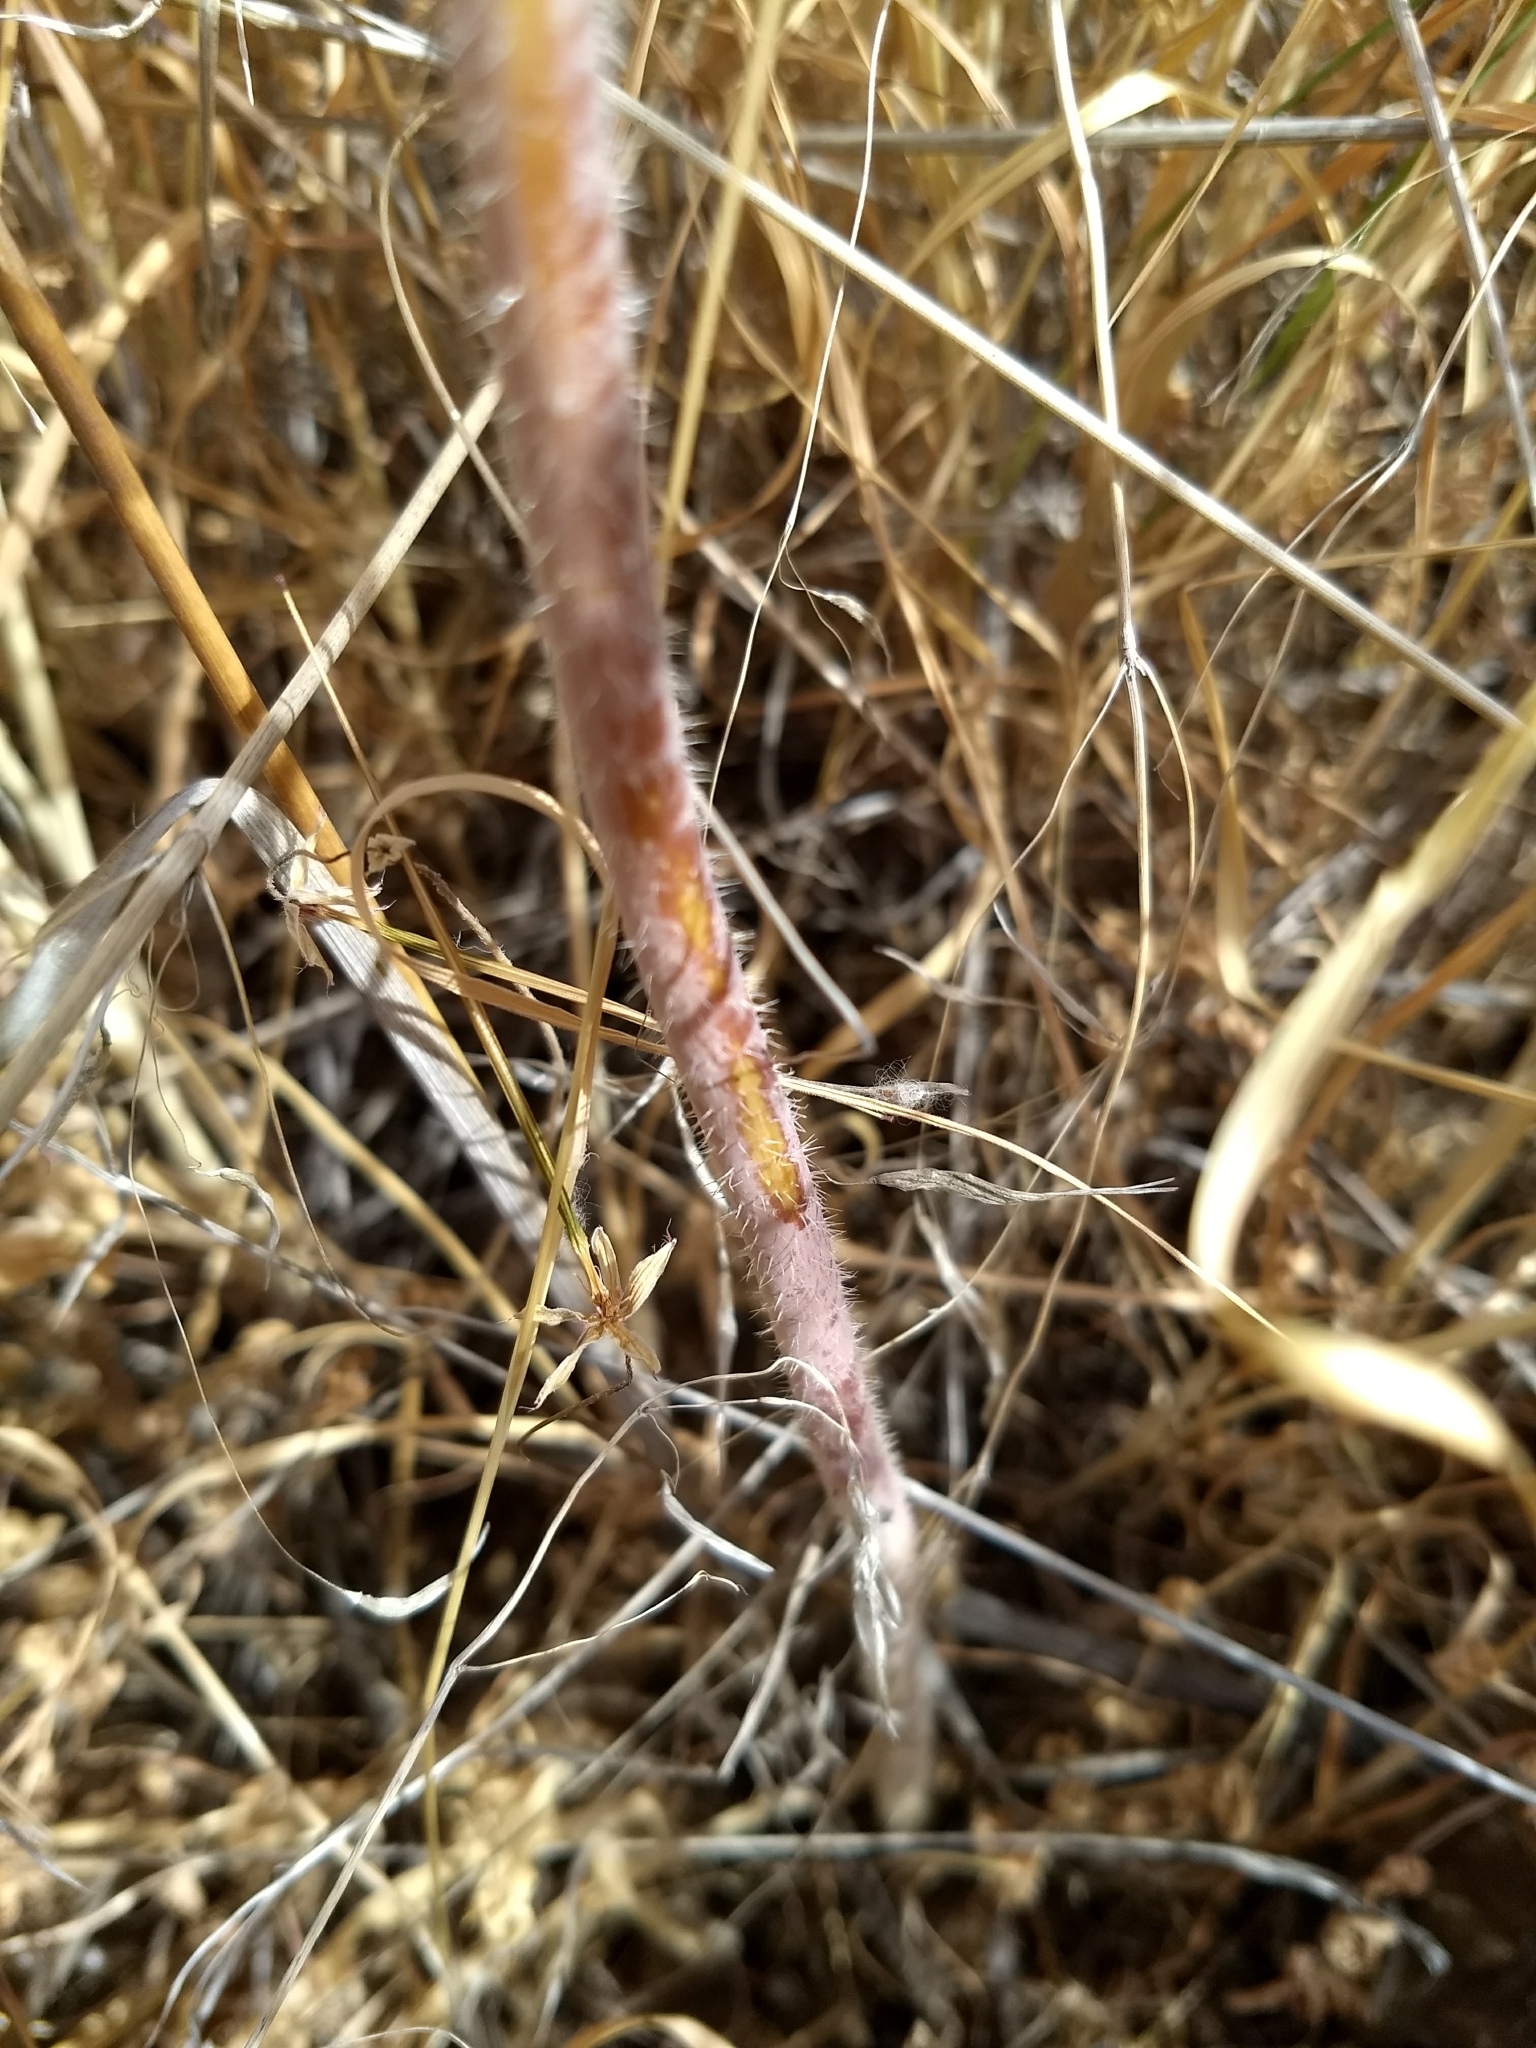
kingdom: Plantae
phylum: Tracheophyta
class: Magnoliopsida
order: Brassicales
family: Brassicaceae
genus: Streptanthus
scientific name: Streptanthus coulteri
